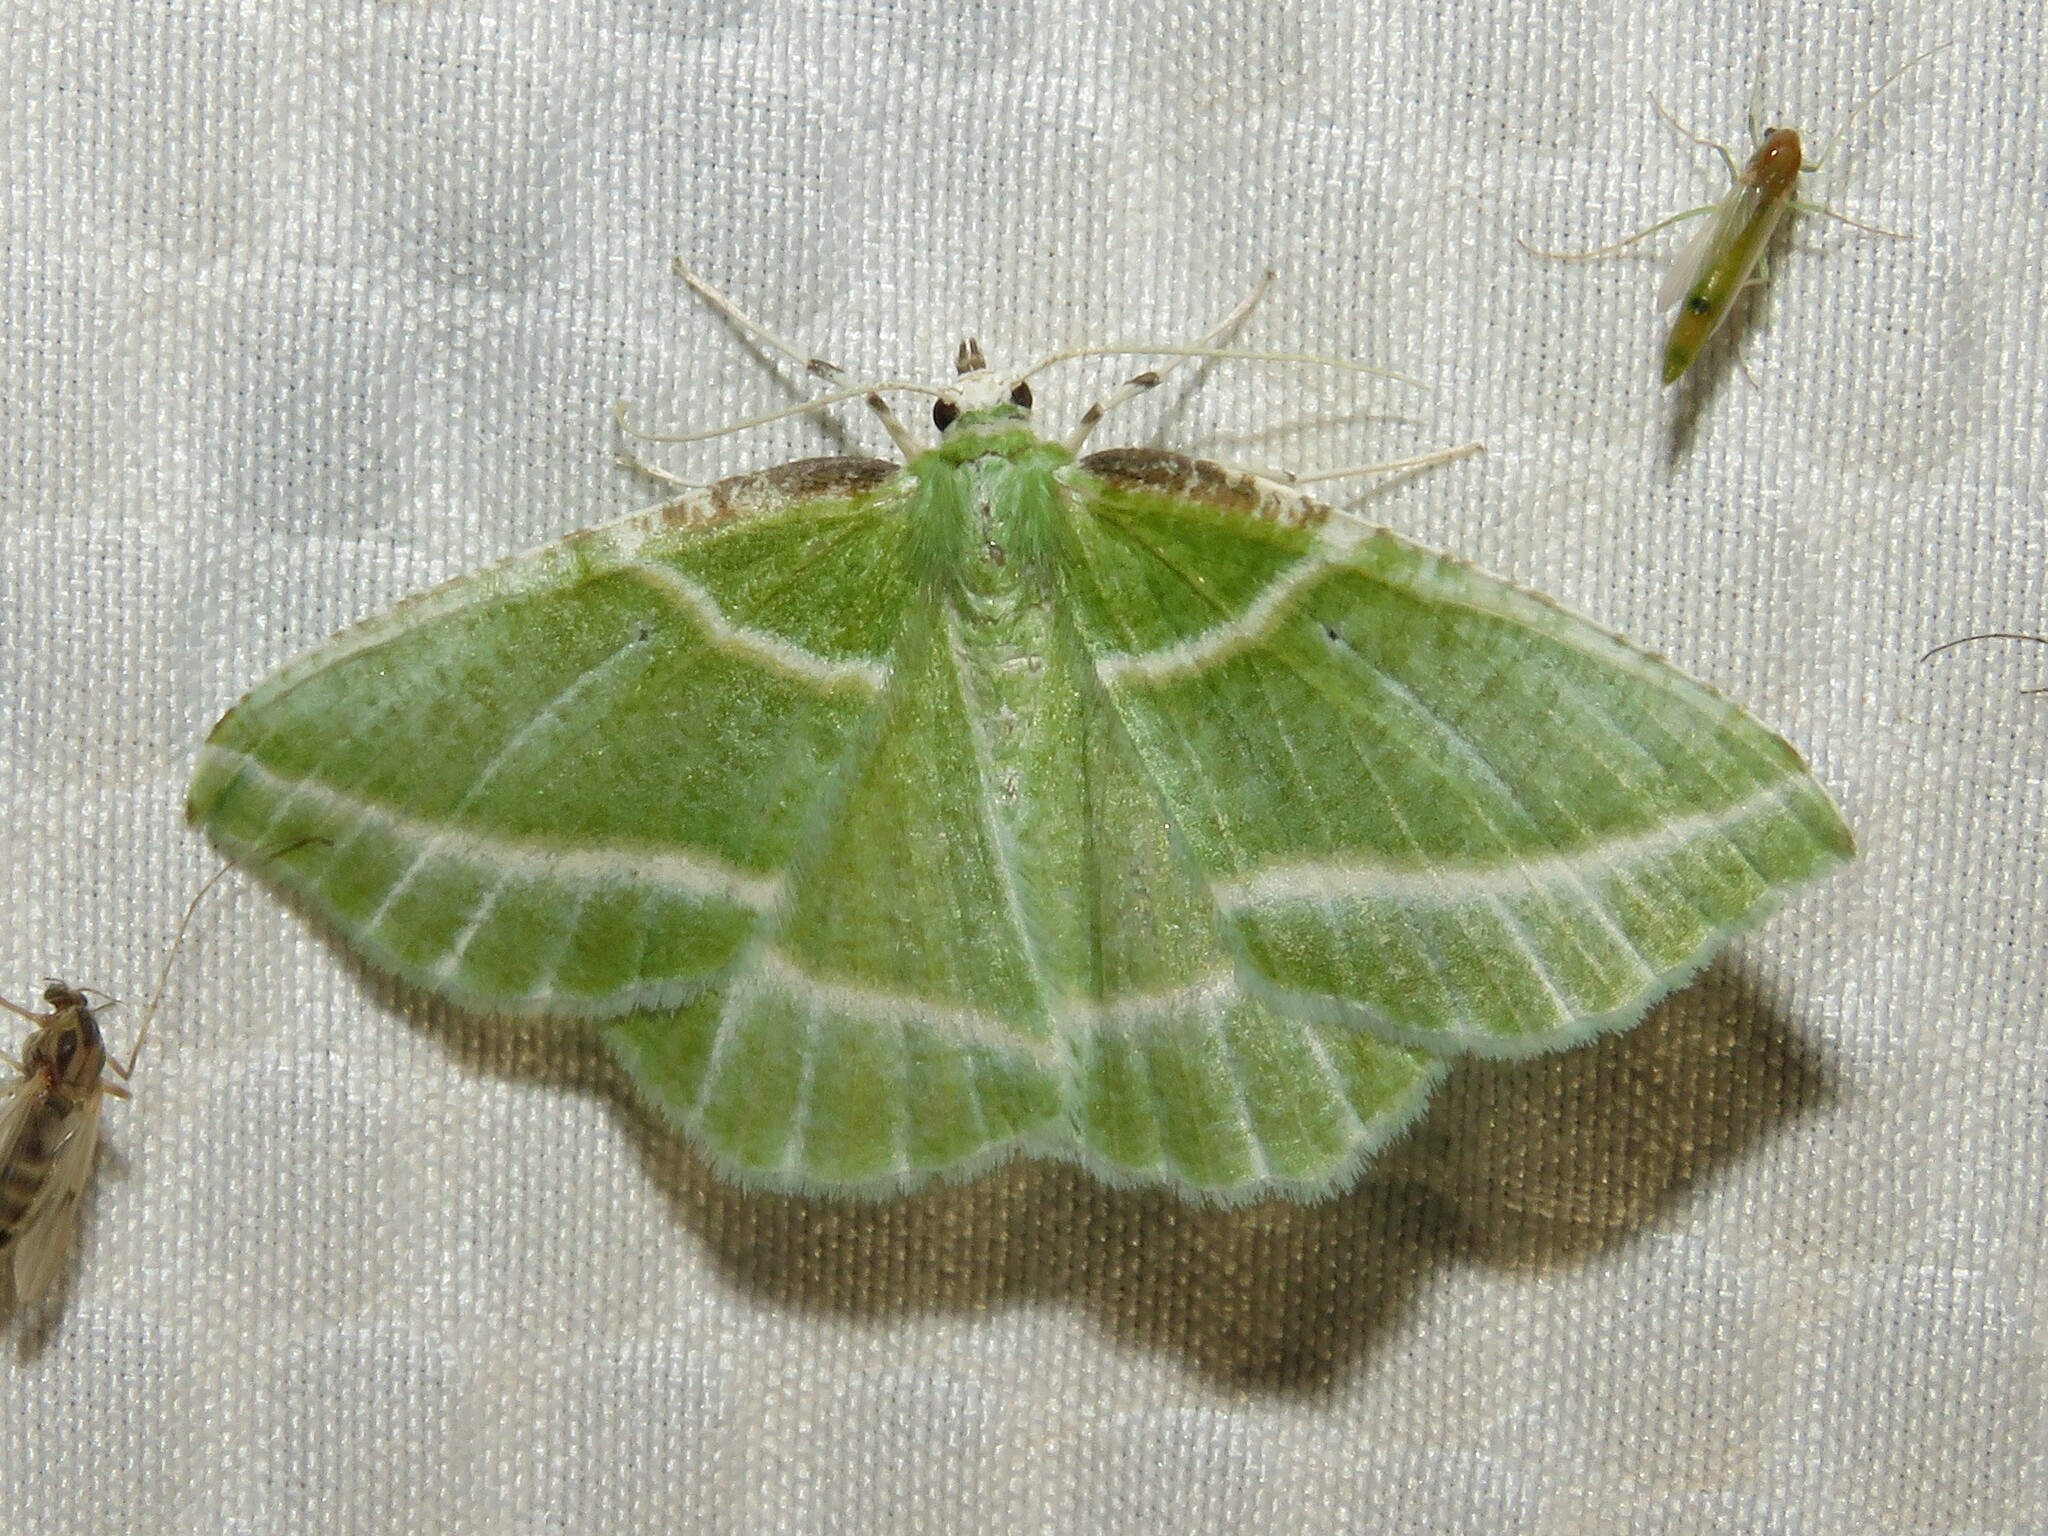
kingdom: Animalia
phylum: Arthropoda
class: Insecta
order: Lepidoptera
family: Geometridae
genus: Dichorda
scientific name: Dichorda iridaria
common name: Showy emerald
